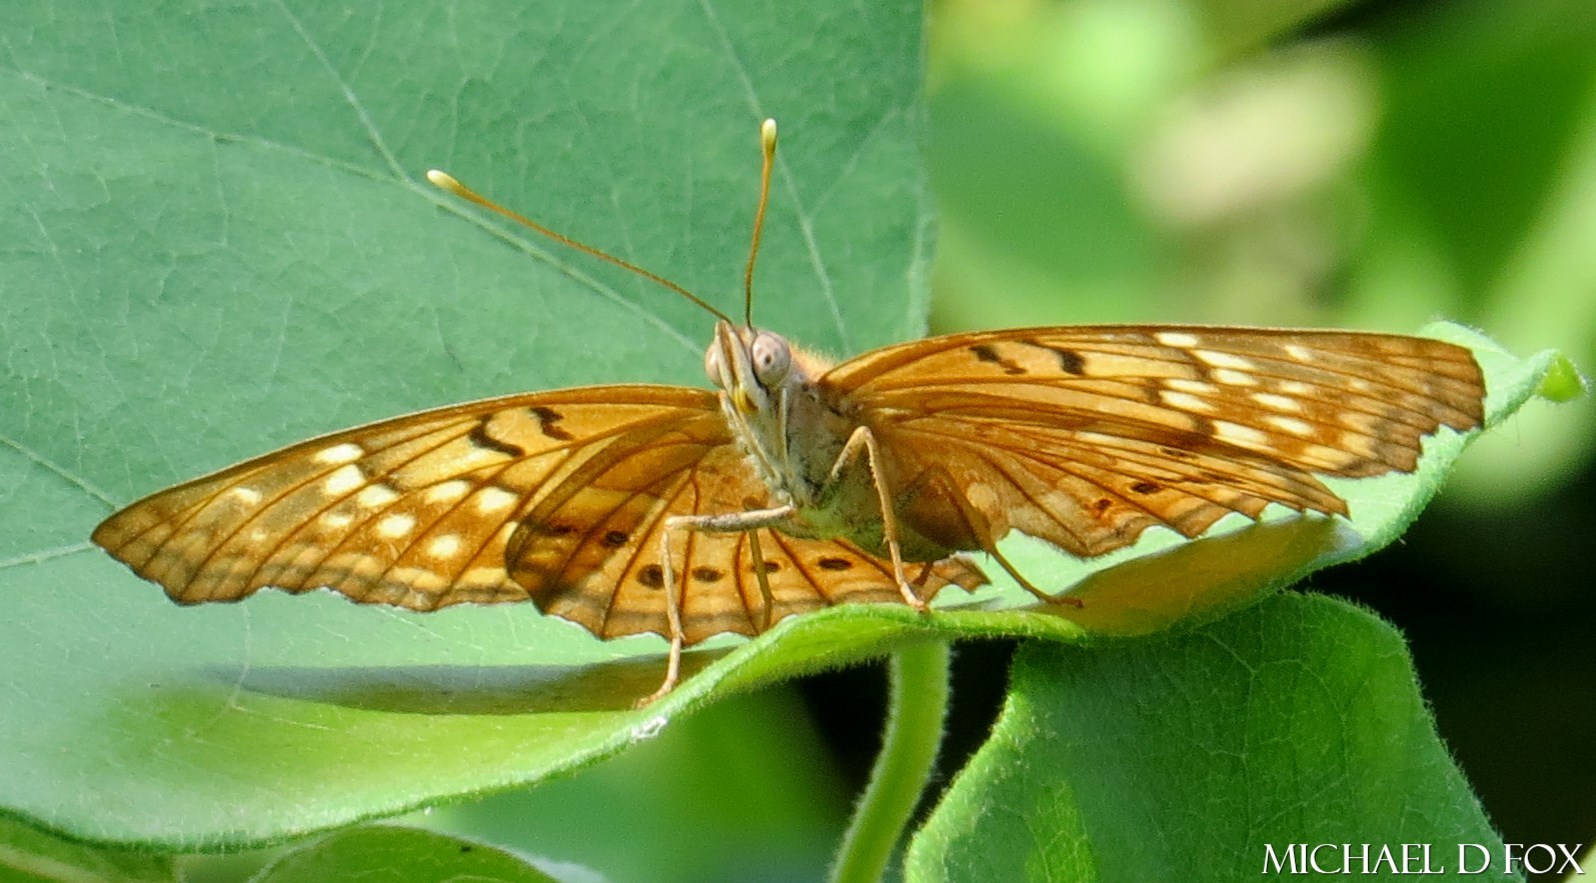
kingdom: Animalia
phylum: Arthropoda
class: Insecta
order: Lepidoptera
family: Nymphalidae
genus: Asterocampa
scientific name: Asterocampa clyton
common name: Tawny emperor
